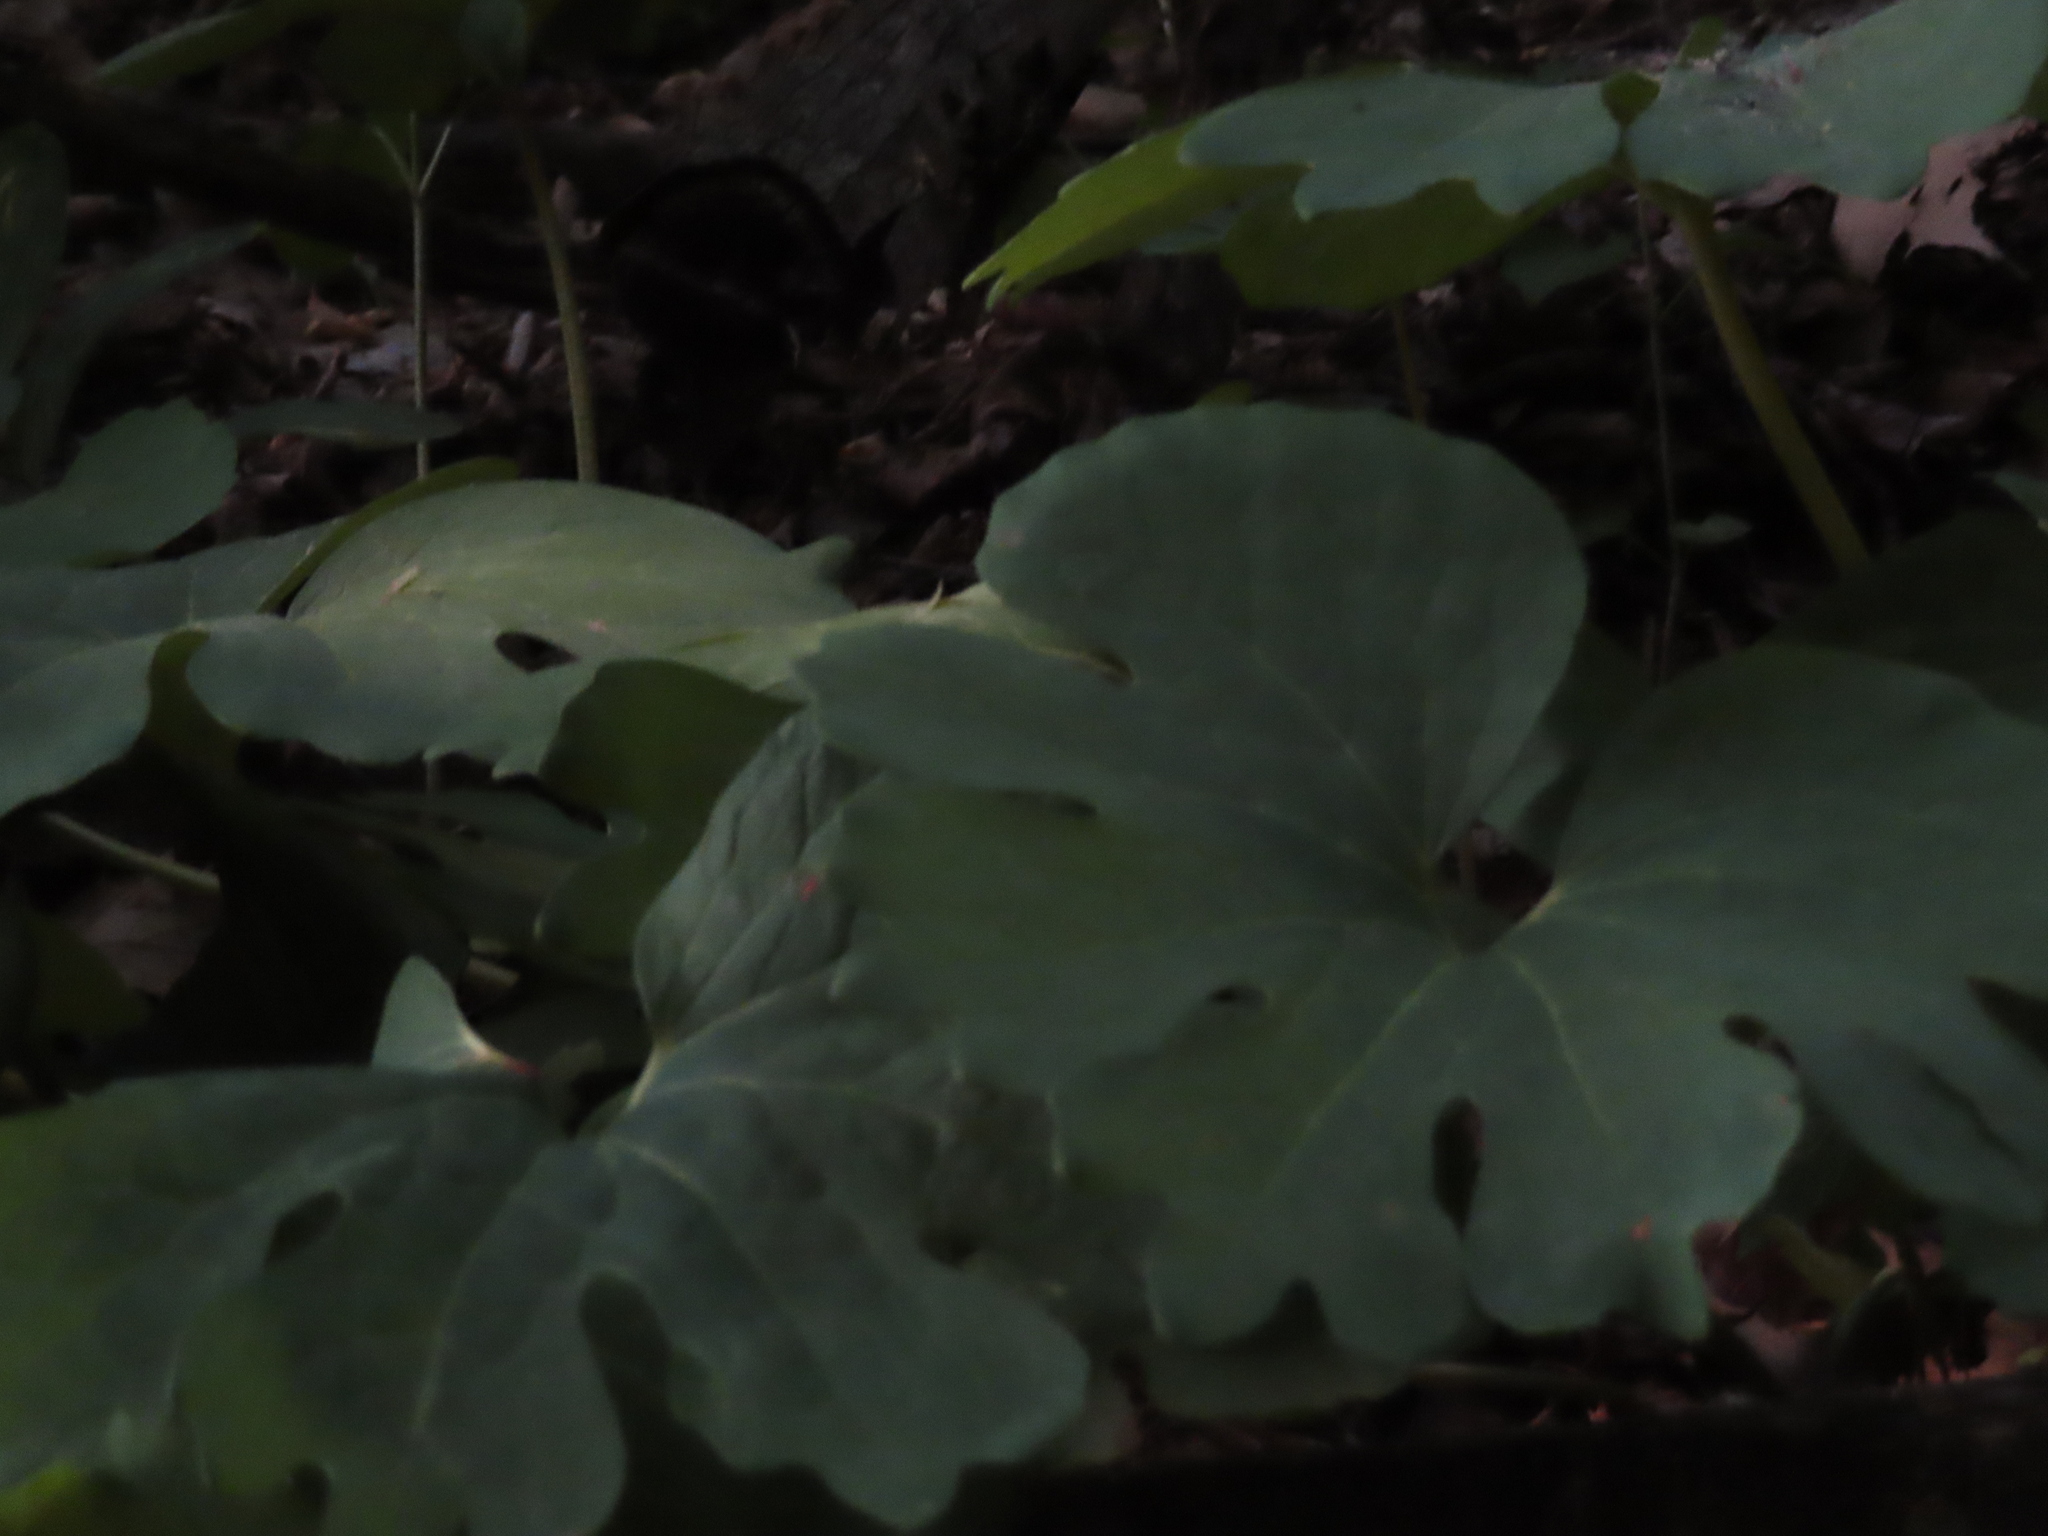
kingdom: Plantae
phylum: Tracheophyta
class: Magnoliopsida
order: Ranunculales
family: Papaveraceae
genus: Sanguinaria
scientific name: Sanguinaria canadensis
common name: Bloodroot
